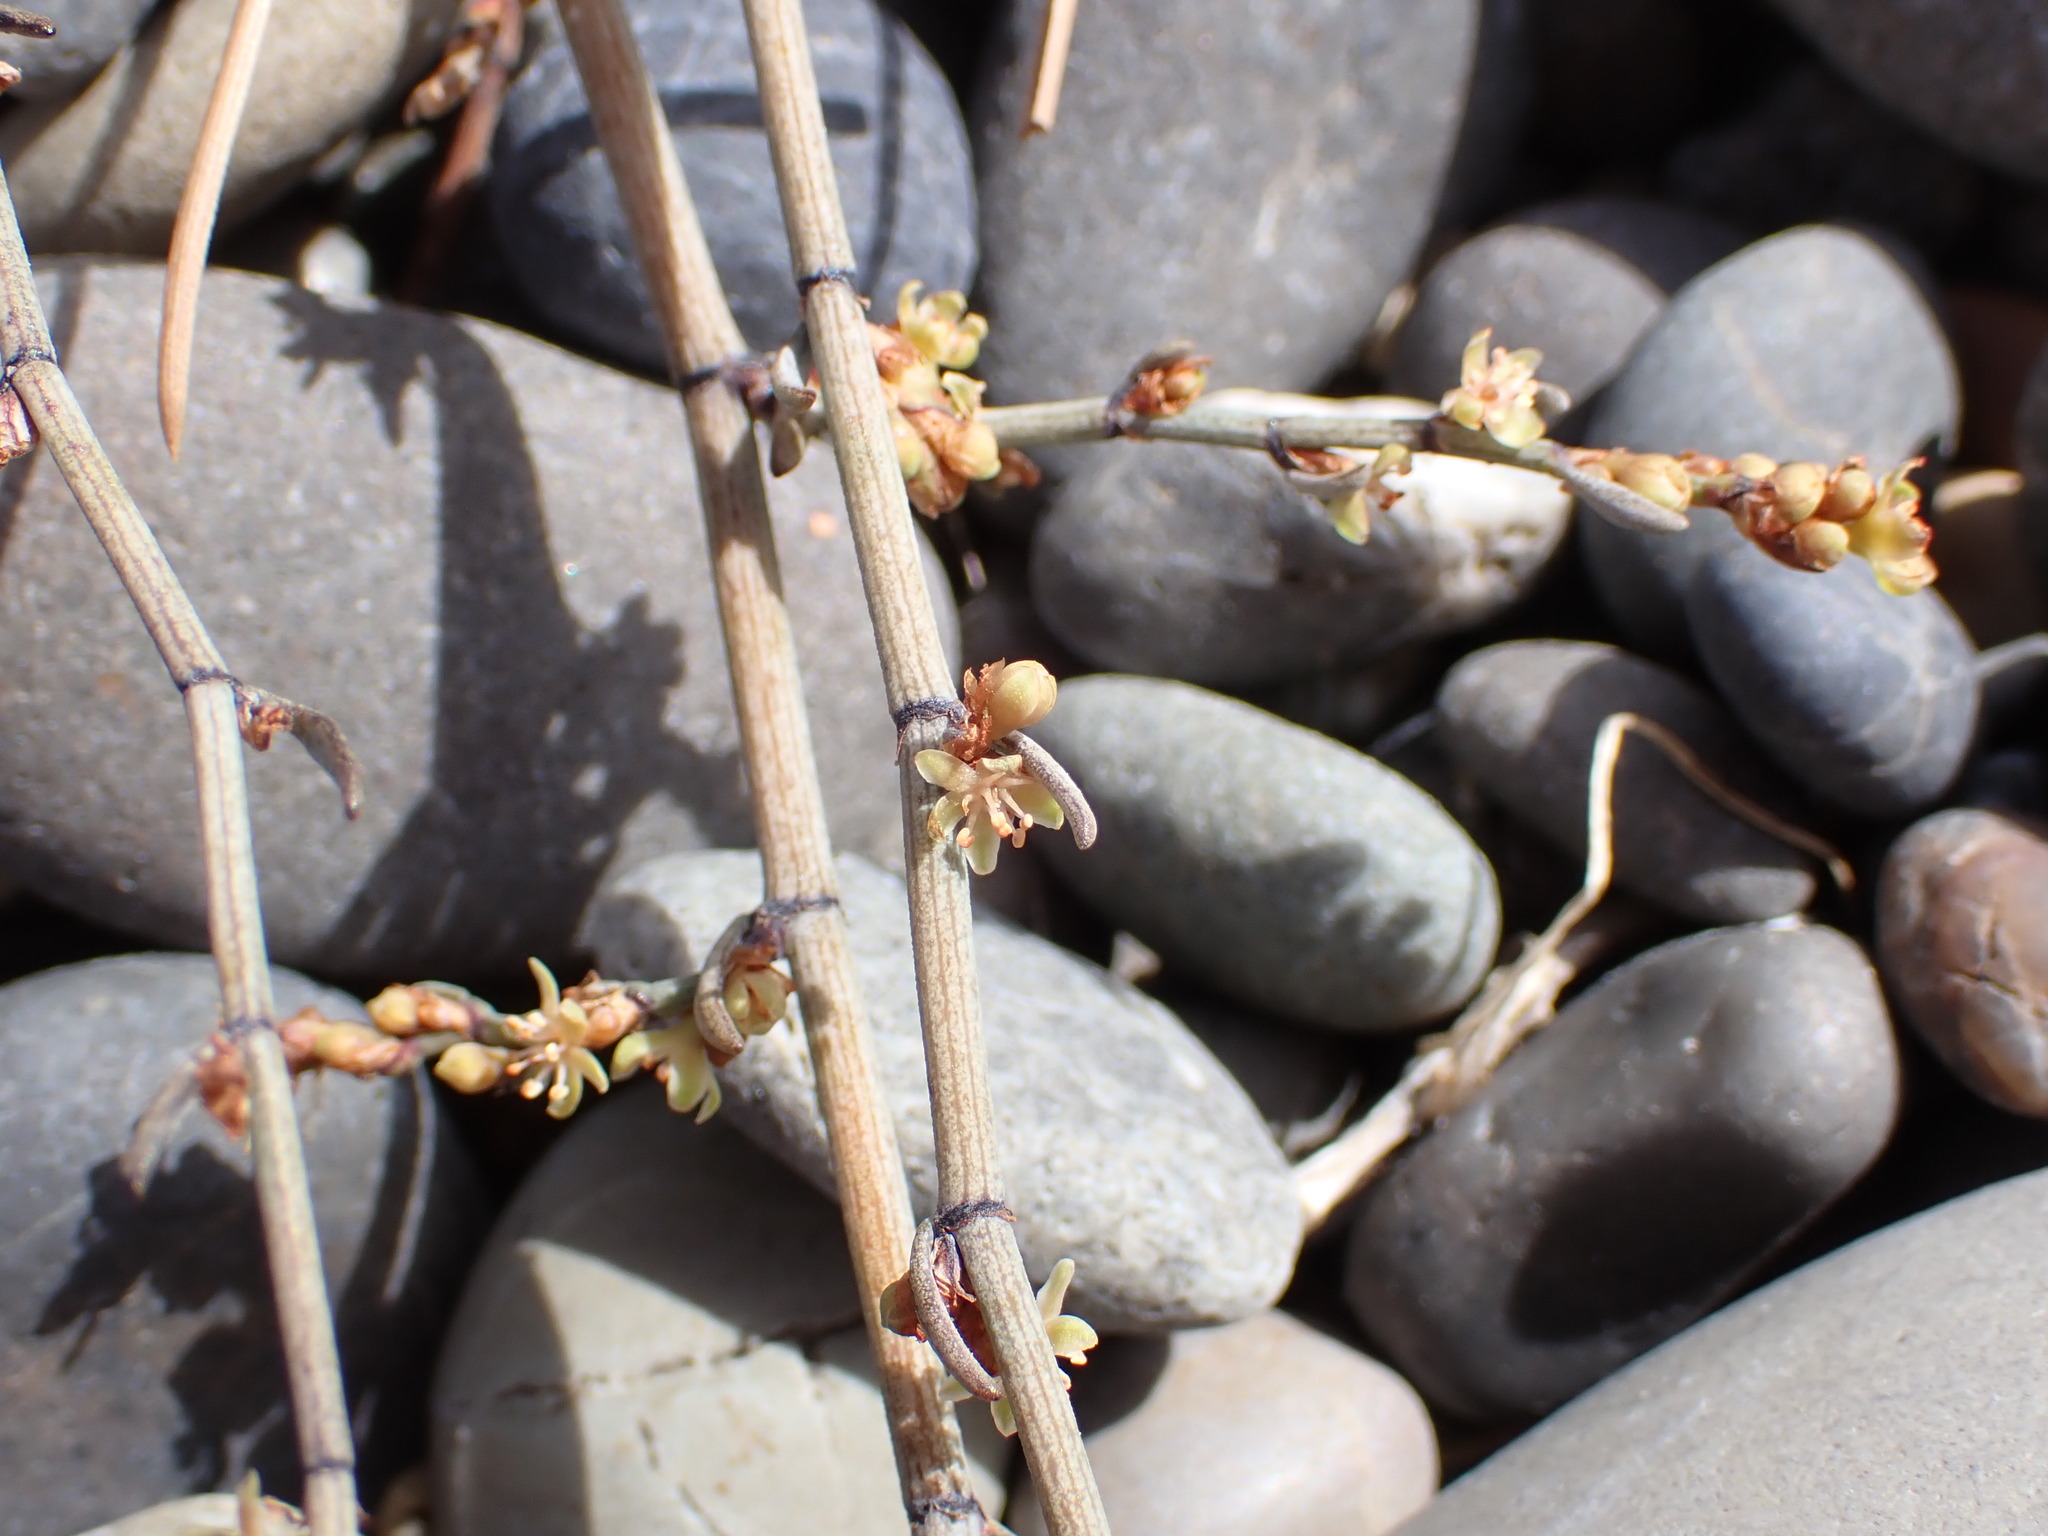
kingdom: Plantae
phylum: Tracheophyta
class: Magnoliopsida
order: Caryophyllales
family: Polygonaceae
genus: Muehlenbeckia
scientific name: Muehlenbeckia ephedroides
